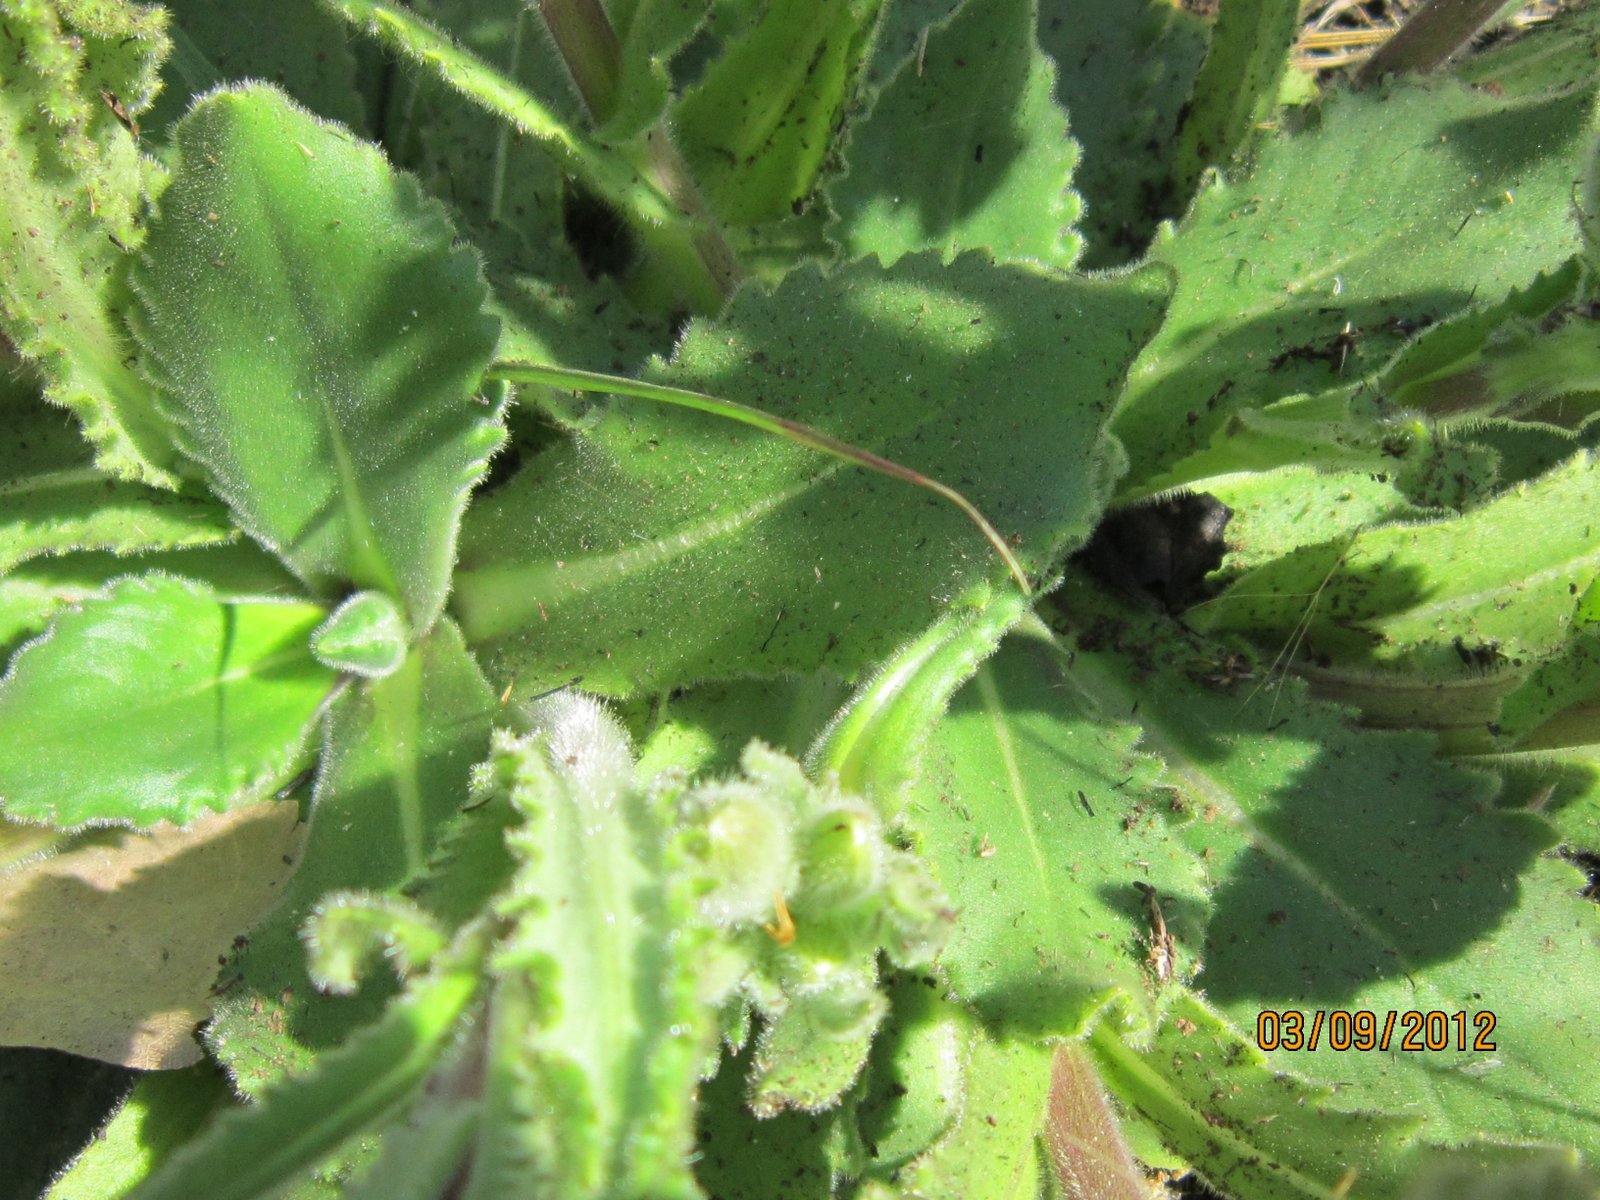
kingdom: Plantae
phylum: Tracheophyta
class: Magnoliopsida
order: Asterales
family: Asteraceae
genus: Senecio
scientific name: Senecio speciosus
